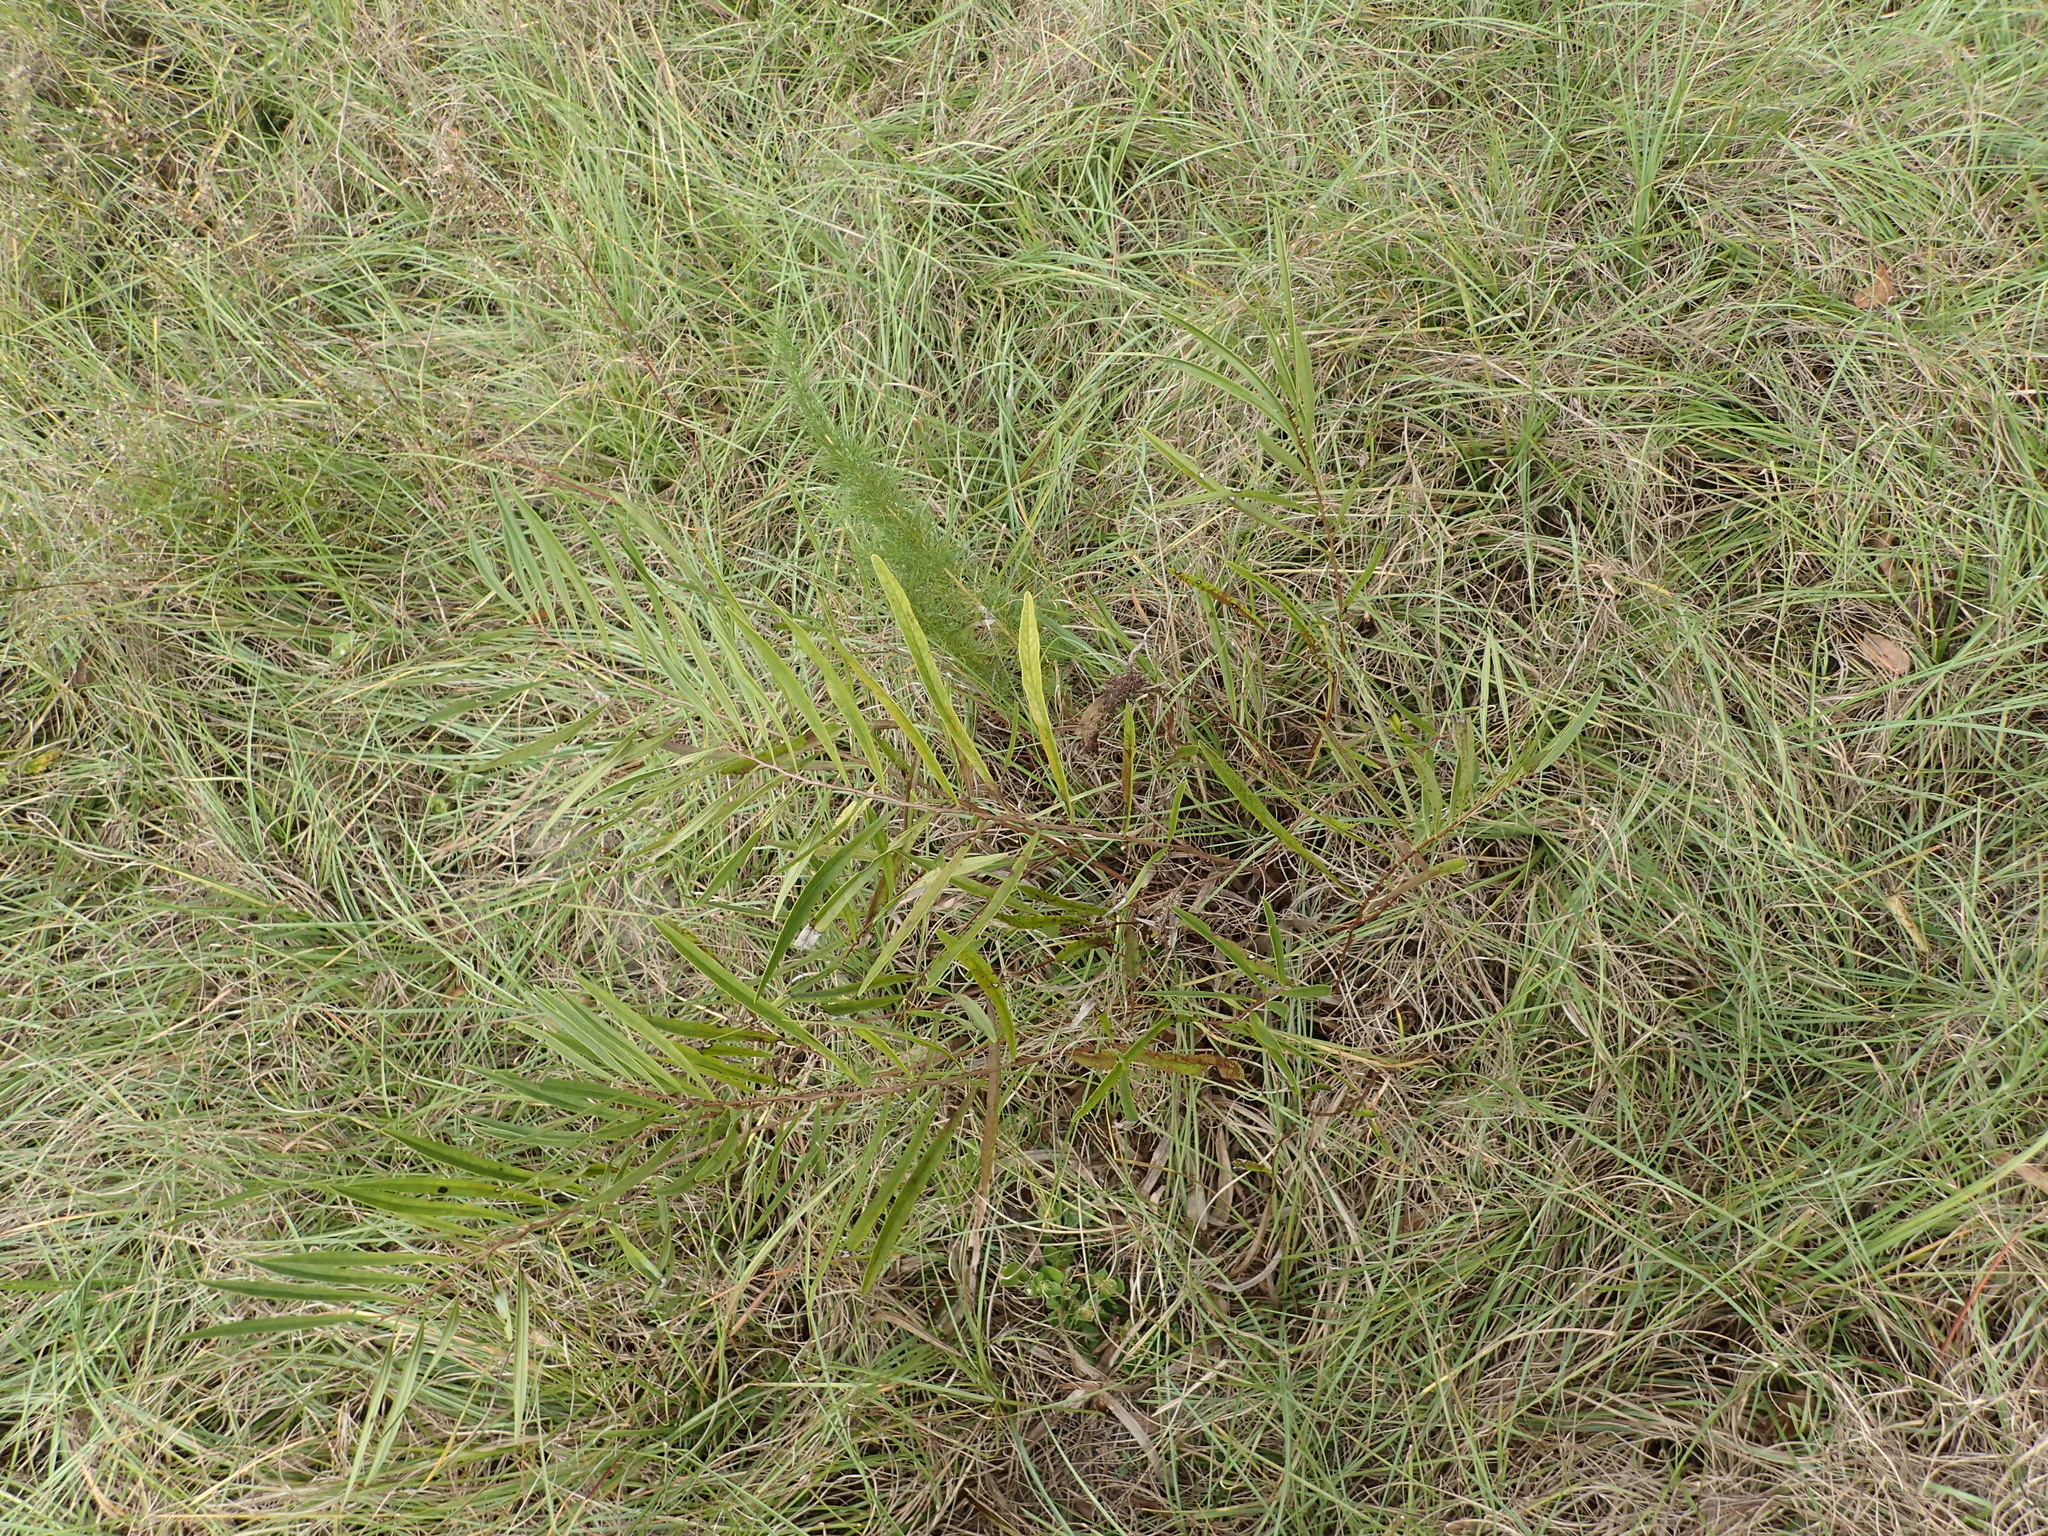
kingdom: Plantae
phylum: Tracheophyta
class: Magnoliopsida
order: Magnoliales
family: Annonaceae
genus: Asimina
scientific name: Asimina longifolia
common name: Polecatbush
